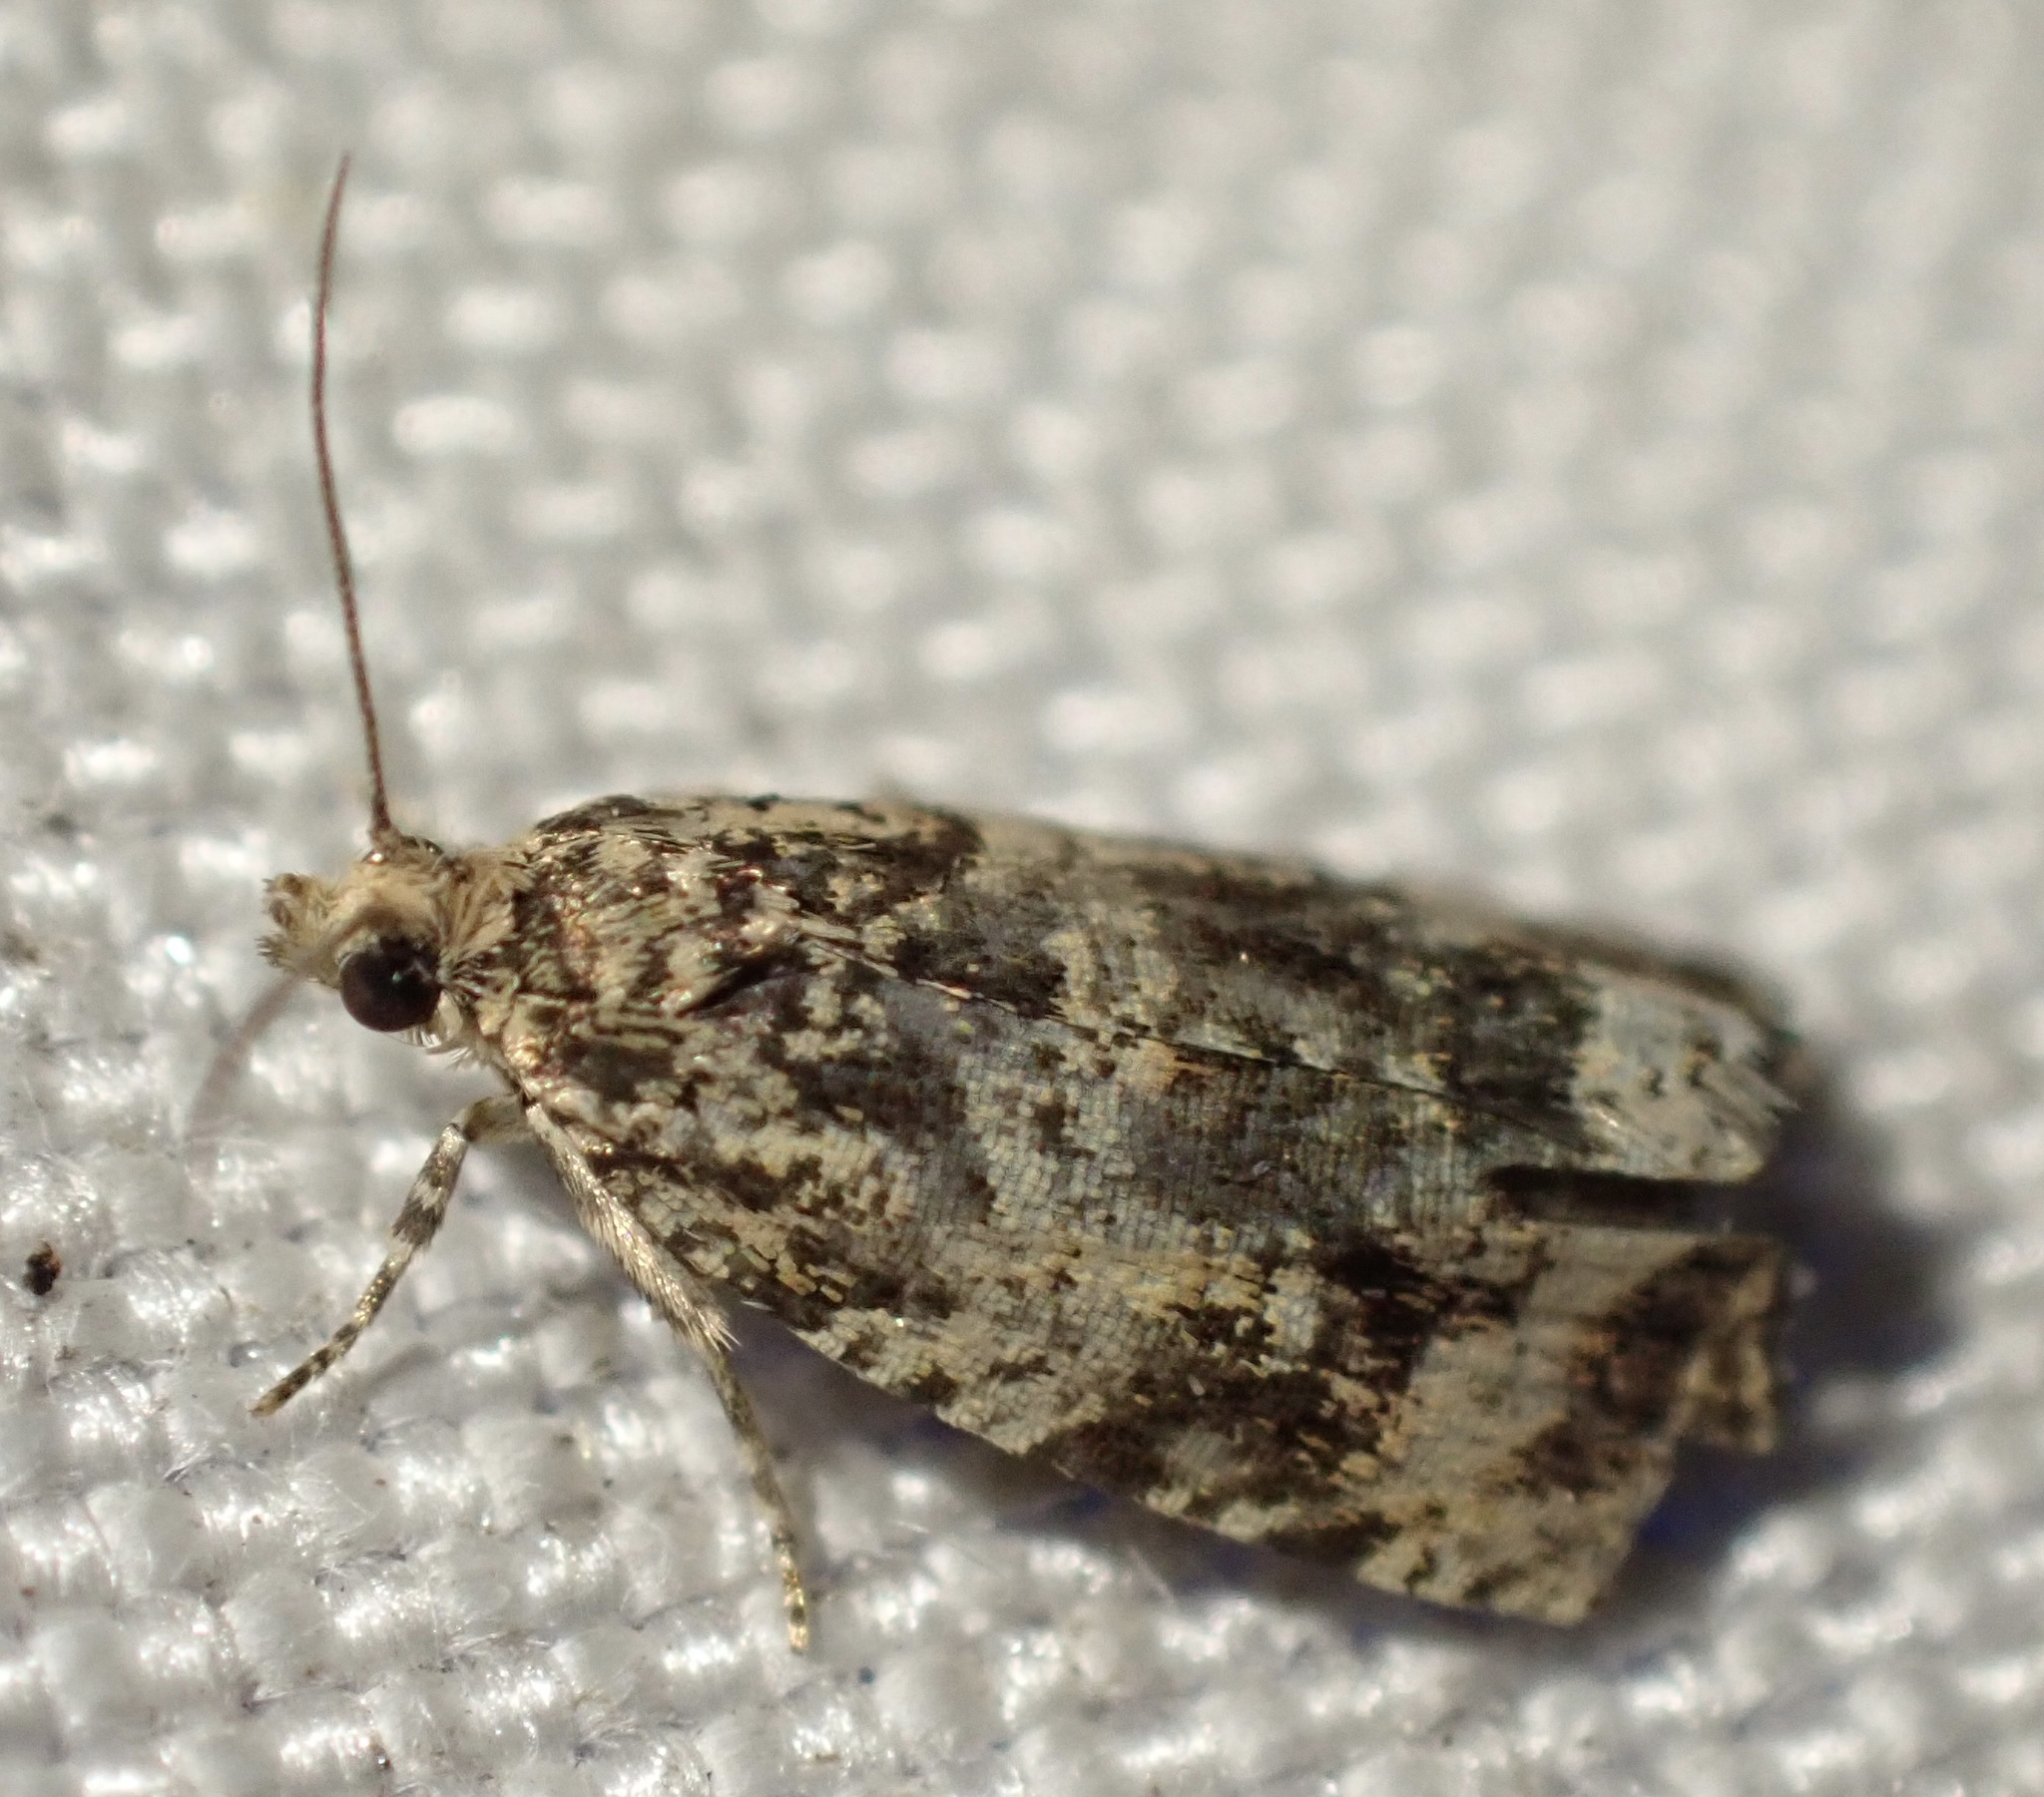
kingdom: Animalia
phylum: Arthropoda
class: Insecta
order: Lepidoptera
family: Tortricidae
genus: Syricoris
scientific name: Syricoris lacunana
